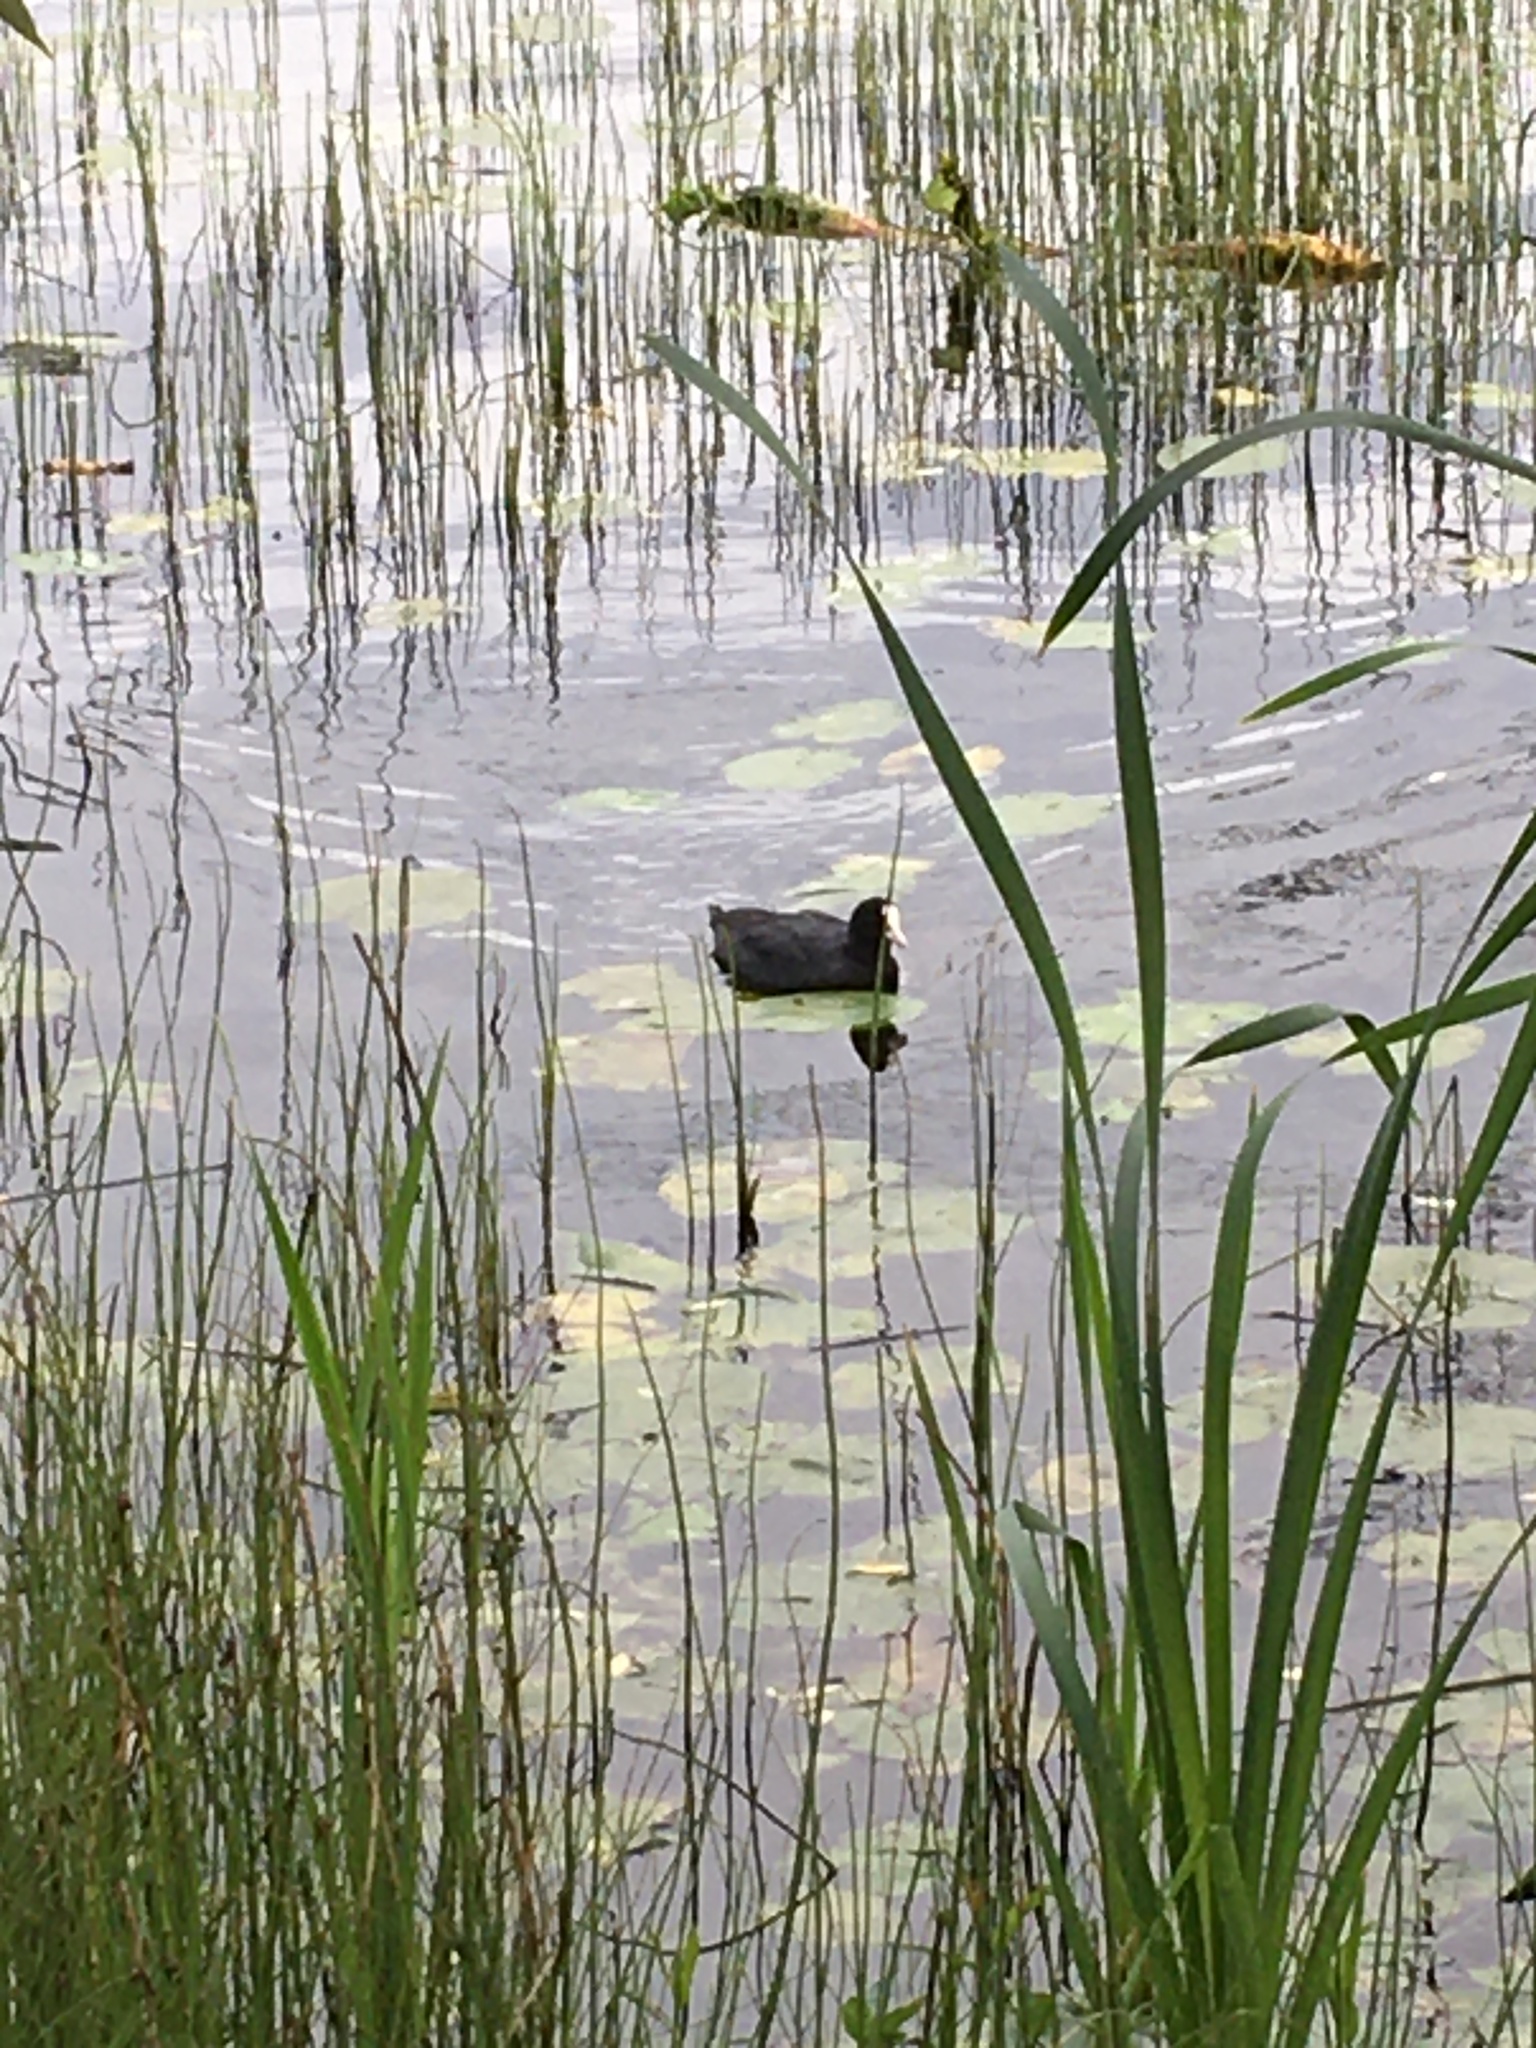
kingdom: Animalia
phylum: Chordata
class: Aves
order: Gruiformes
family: Rallidae
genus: Fulica
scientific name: Fulica atra
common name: Eurasian coot
